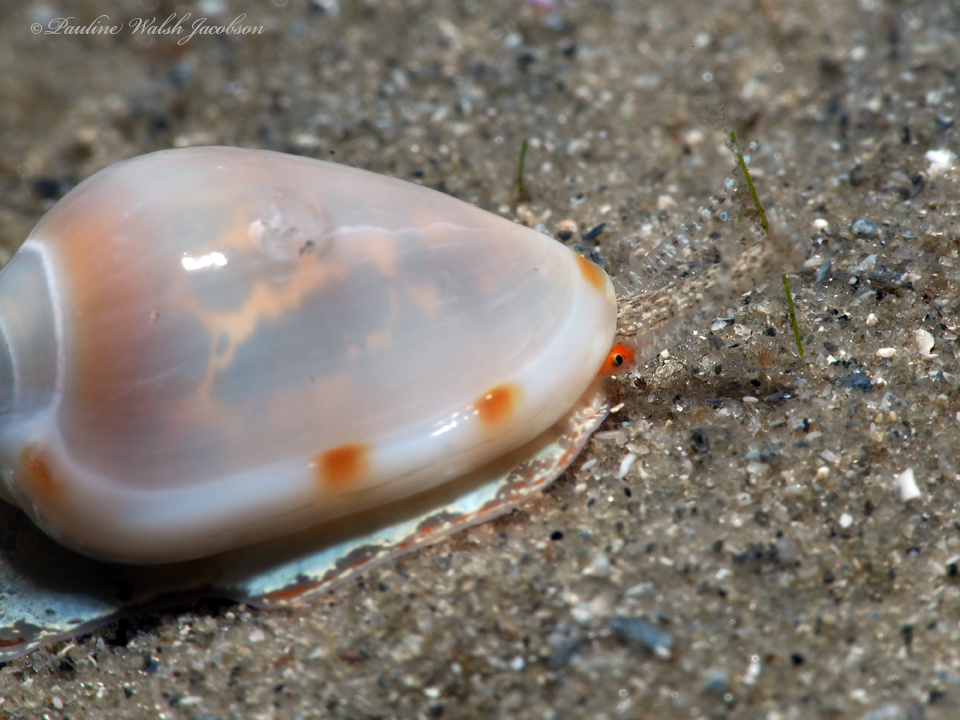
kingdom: Animalia
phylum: Mollusca
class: Gastropoda
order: Neogastropoda
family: Marginellidae
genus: Prunum
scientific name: Prunum apicinum
